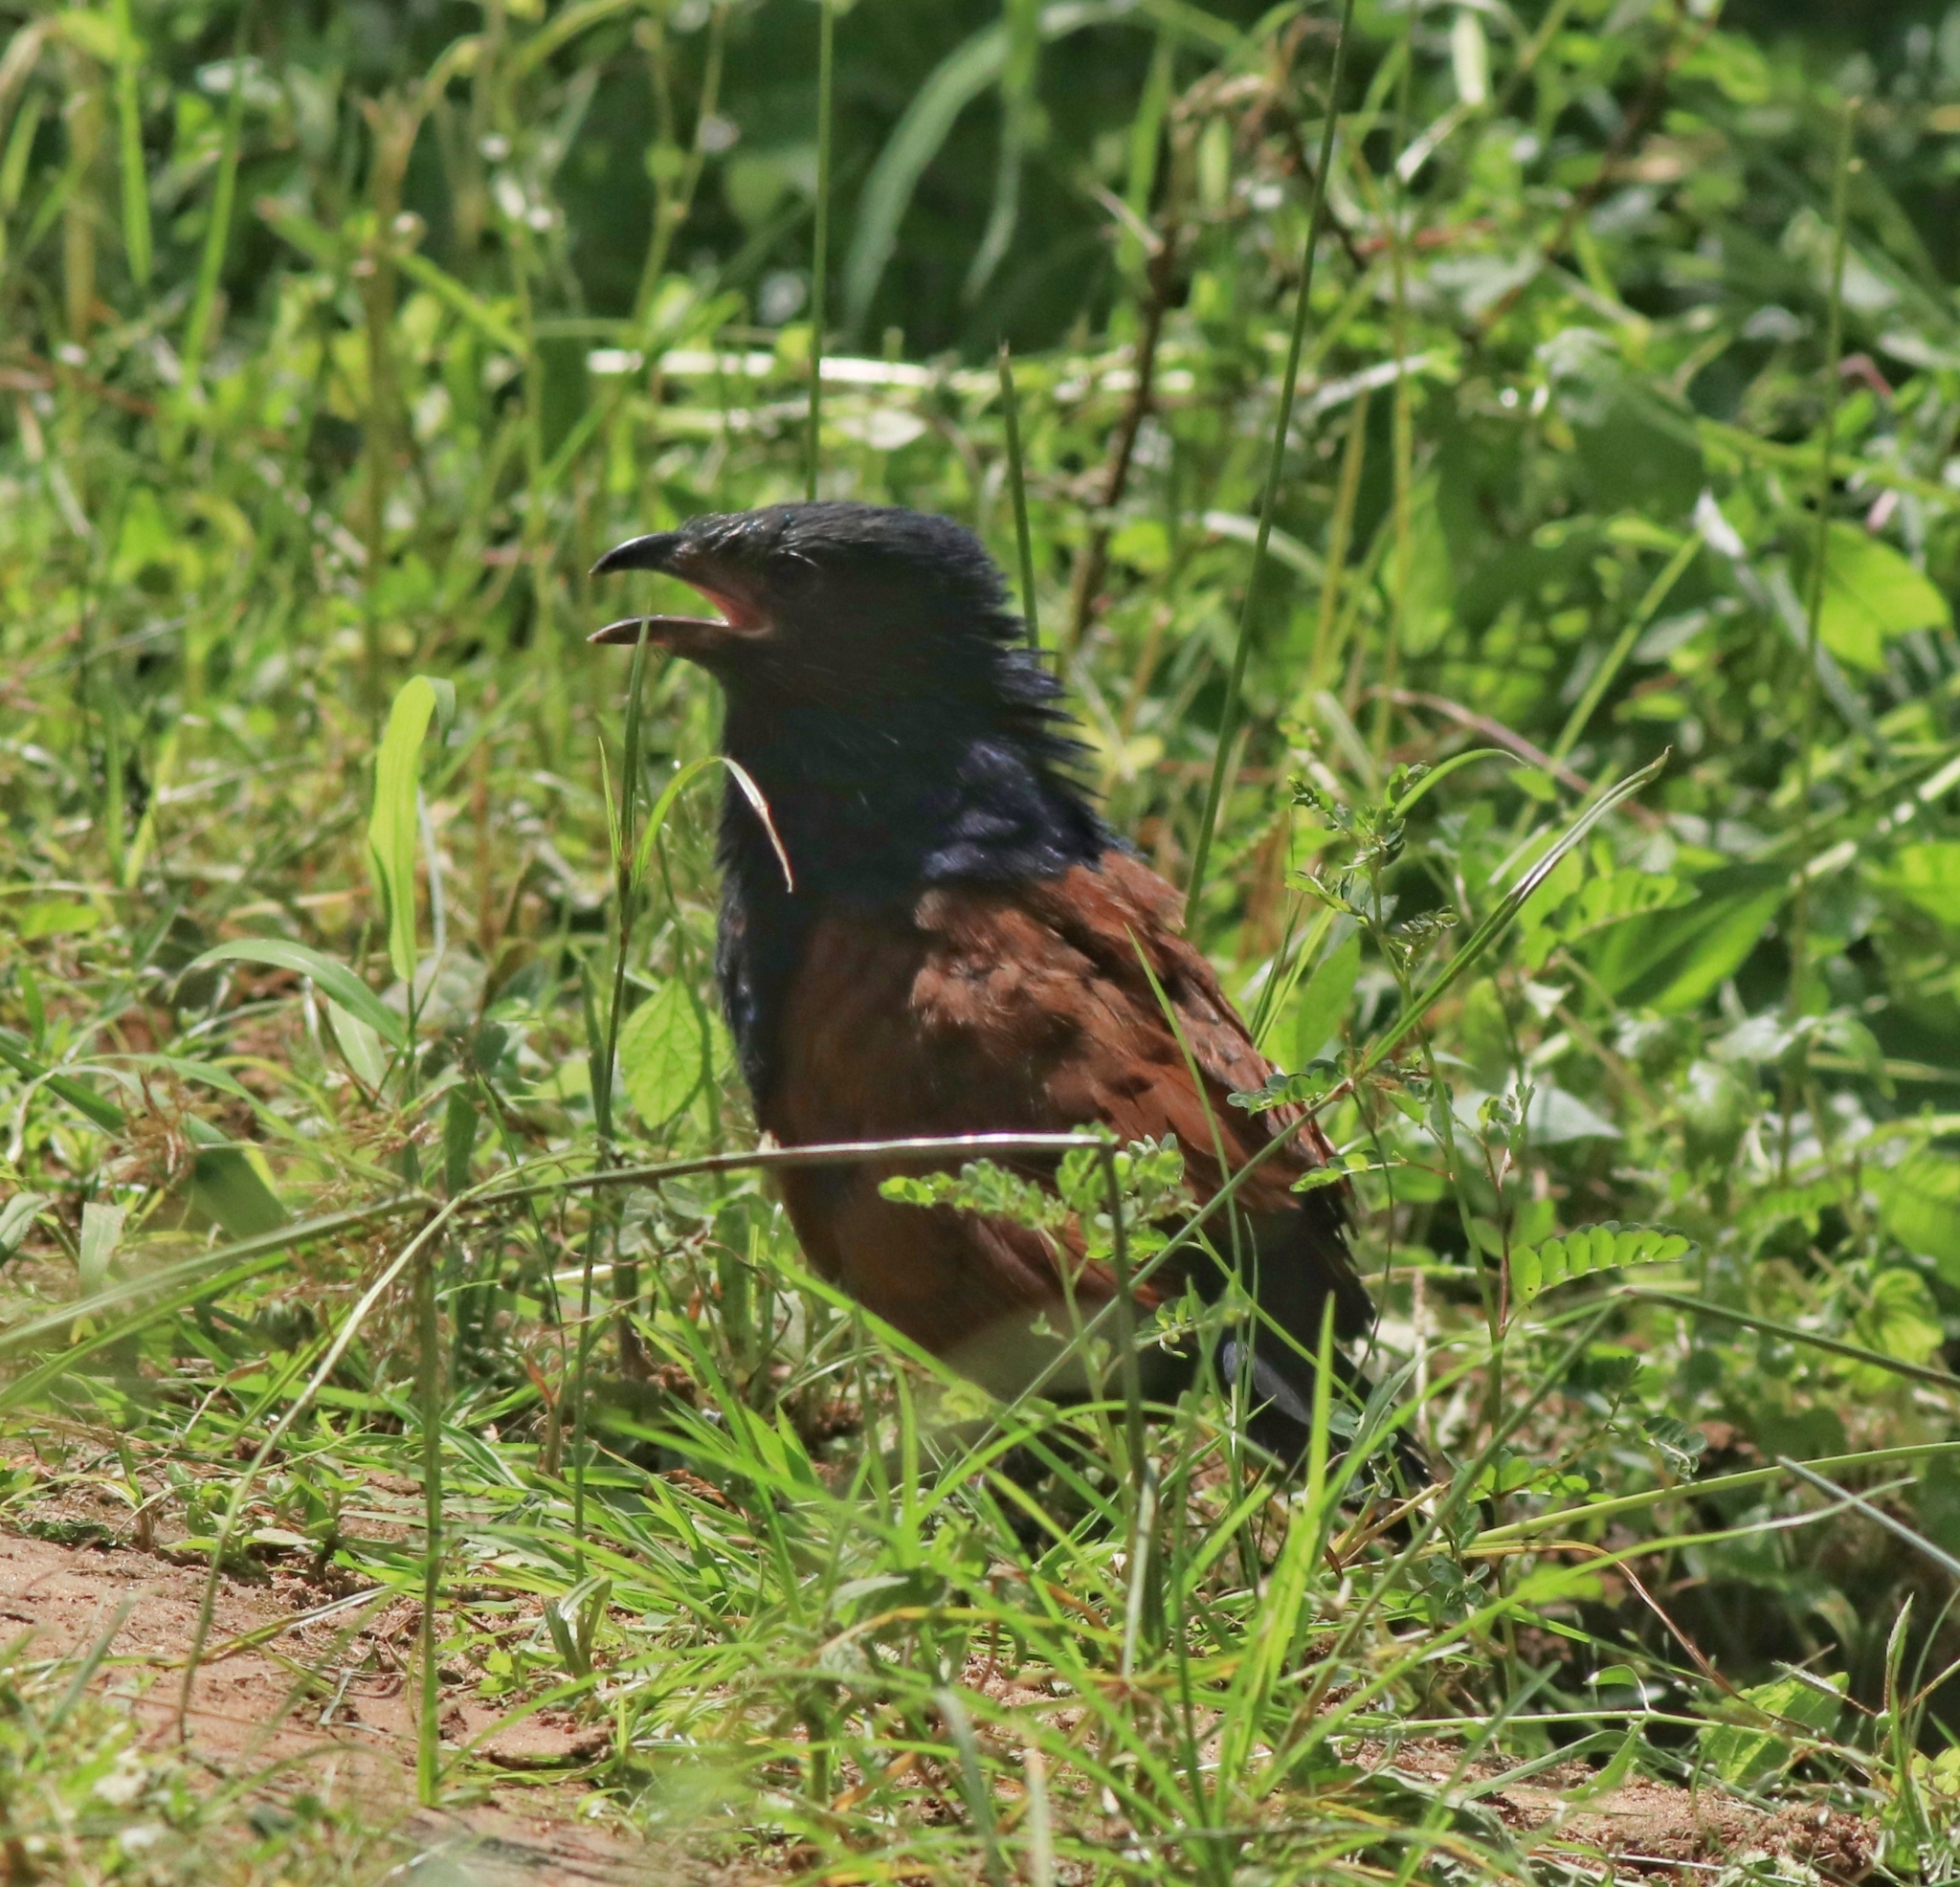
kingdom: Animalia
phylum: Chordata
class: Aves
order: Cuculiformes
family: Cuculidae
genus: Centropus
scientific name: Centropus sinensis
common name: Greater coucal
